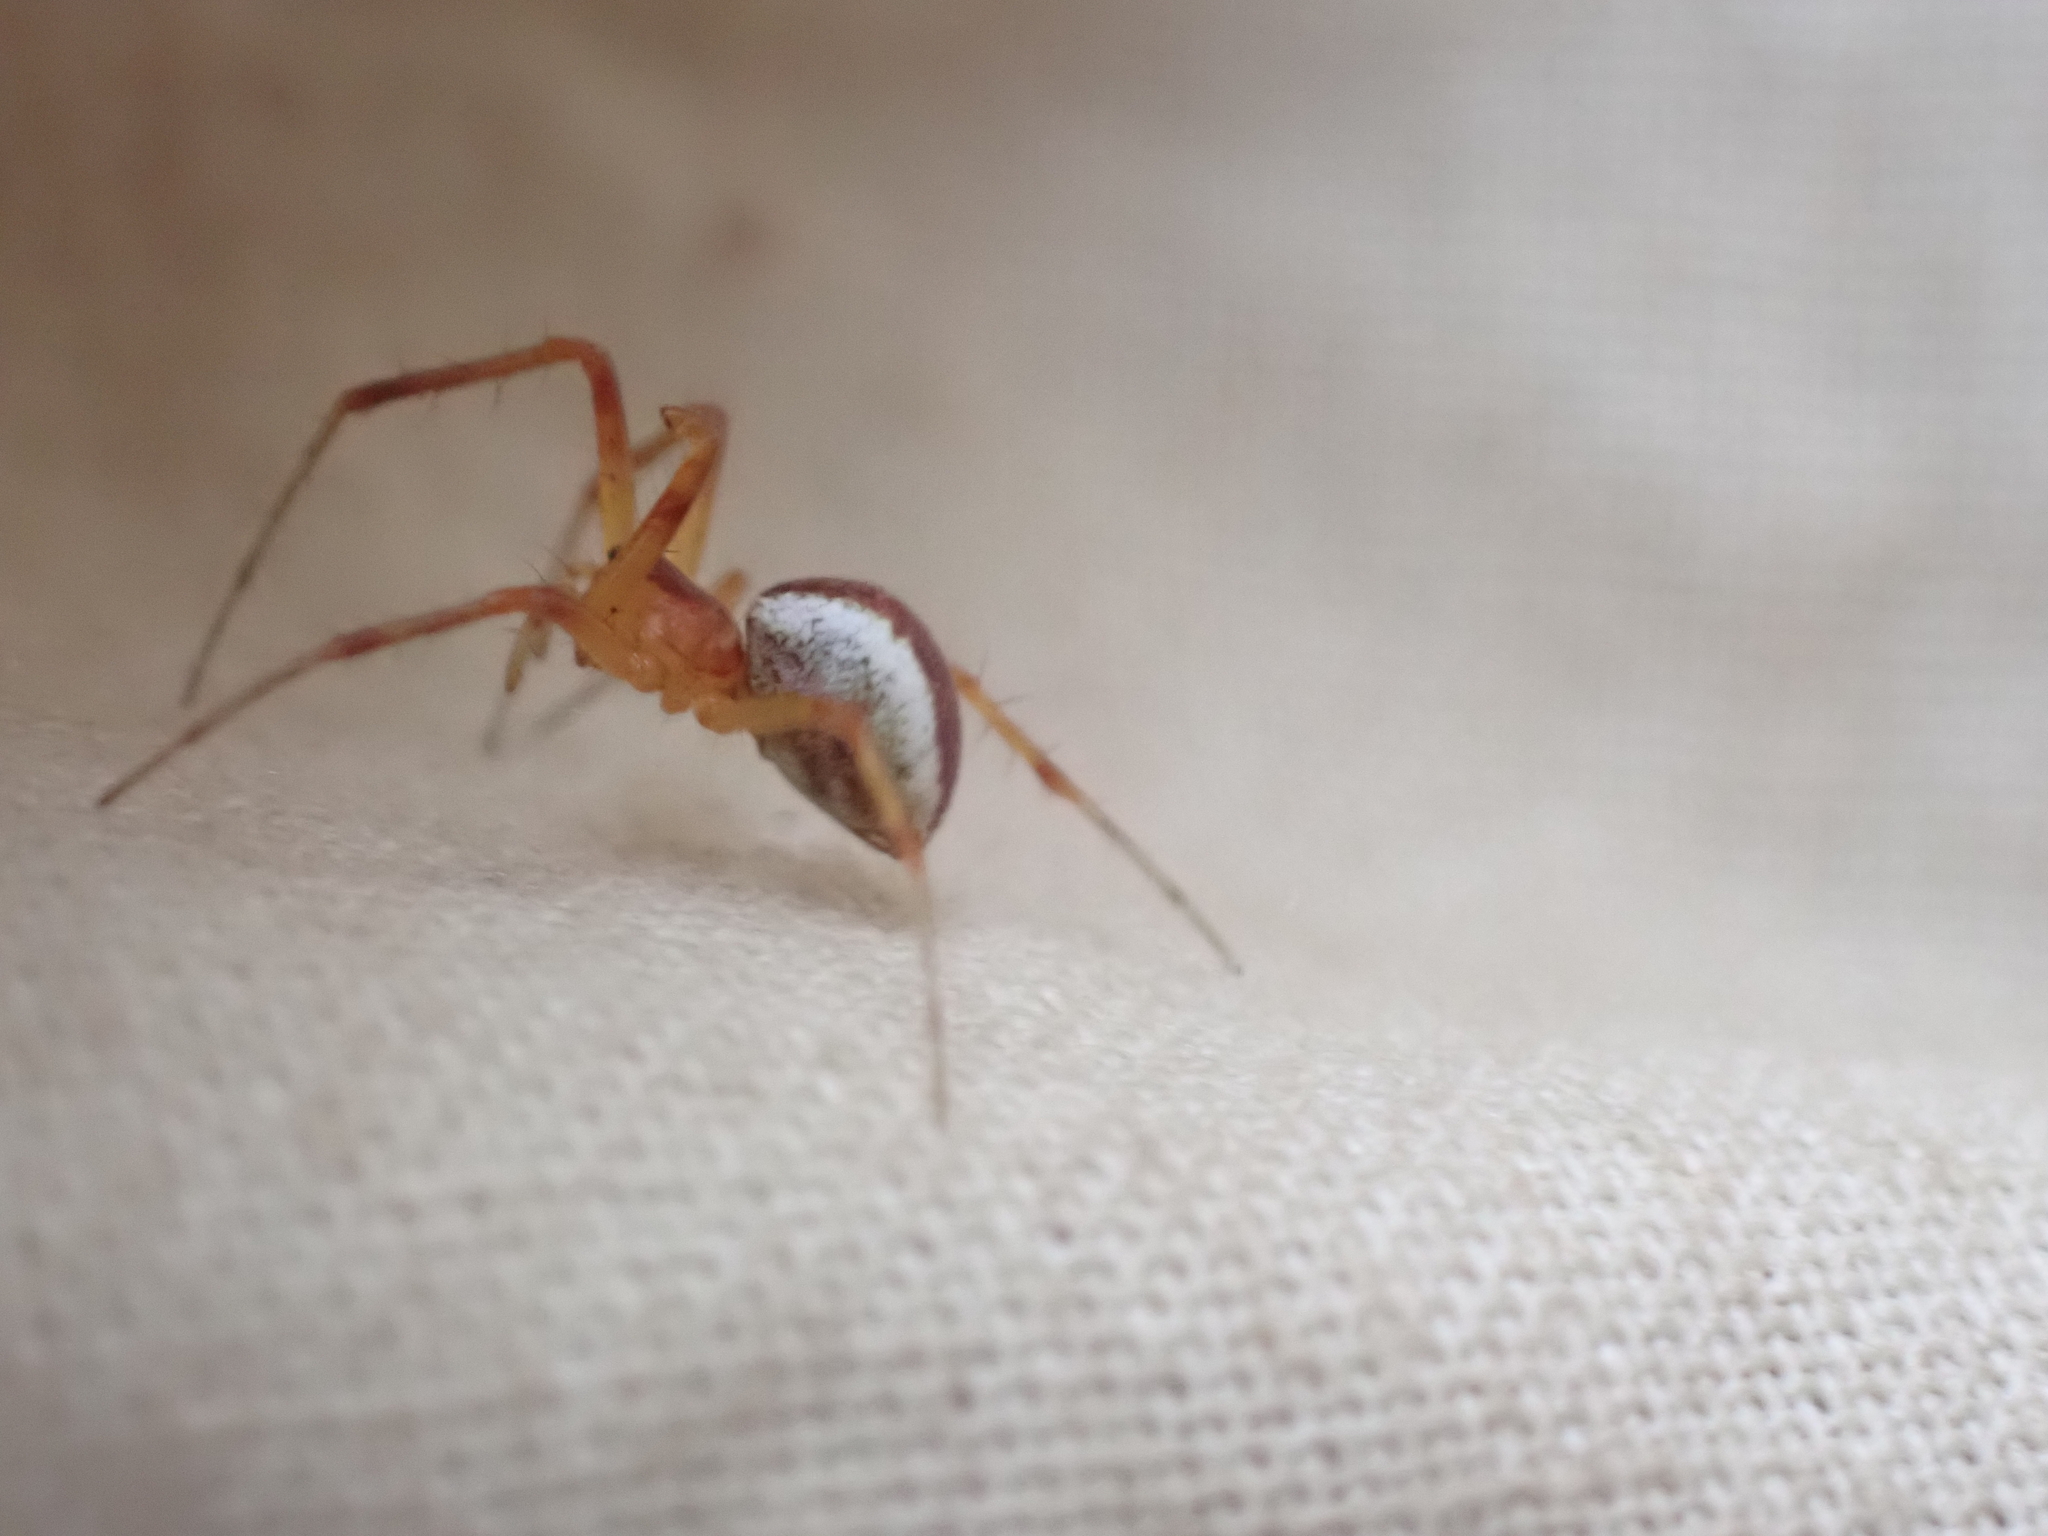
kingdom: Animalia
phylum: Arthropoda
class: Arachnida
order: Araneae
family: Linyphiidae
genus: Pityohyphantes
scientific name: Pityohyphantes rubrofasciatus
